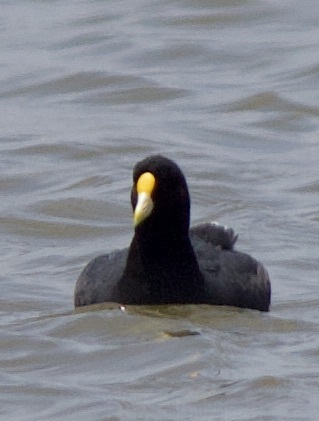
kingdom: Animalia
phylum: Chordata
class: Aves
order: Gruiformes
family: Rallidae
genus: Fulica
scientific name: Fulica leucoptera
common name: White-winged coot
